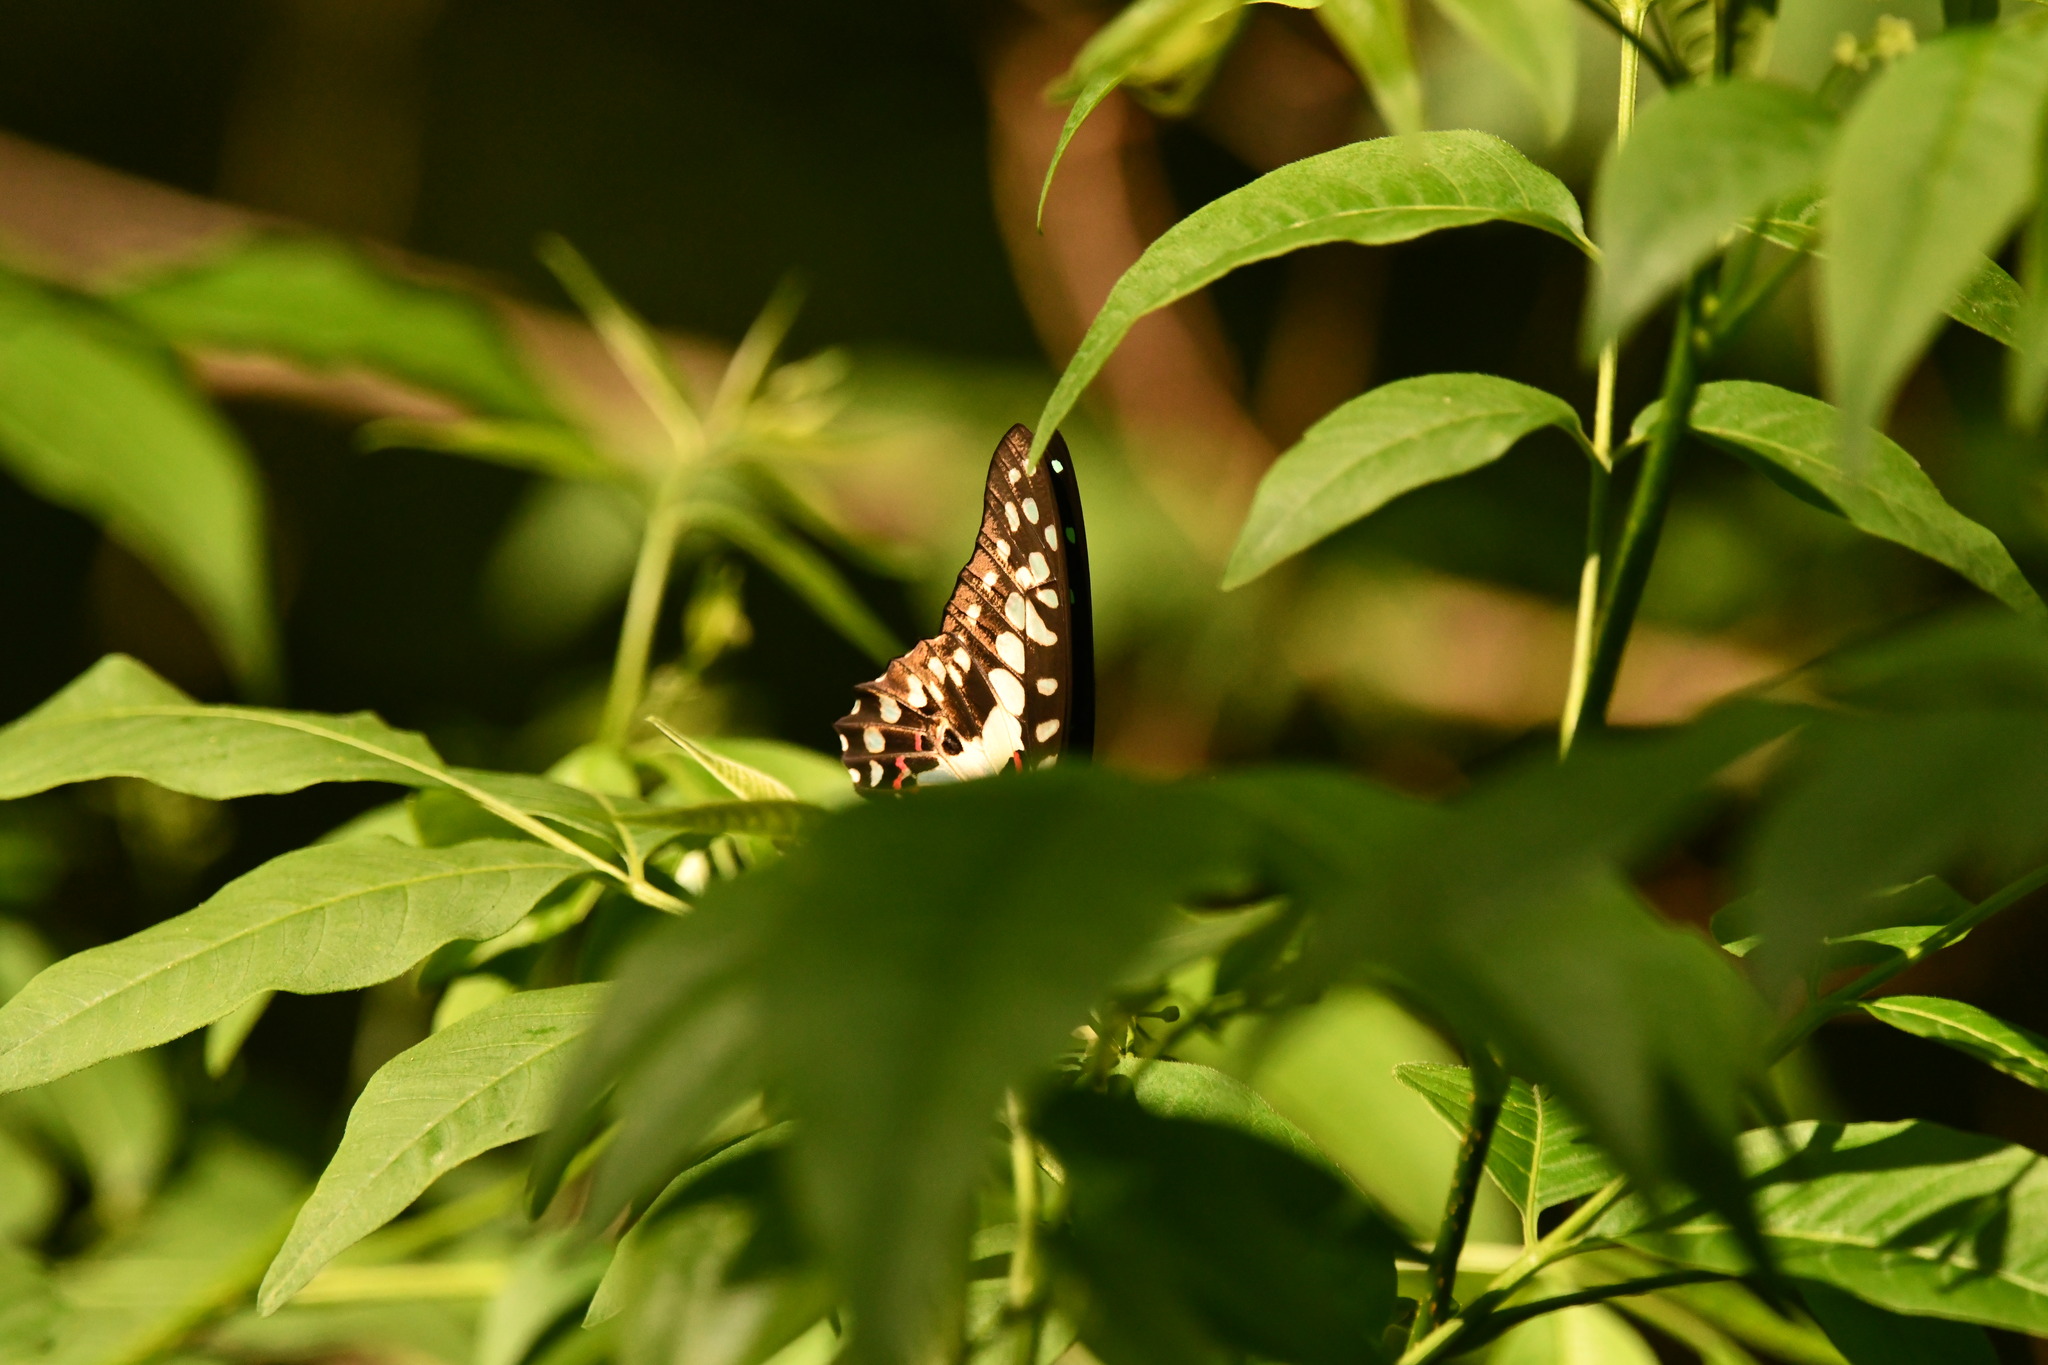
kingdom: Animalia
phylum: Arthropoda
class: Insecta
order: Lepidoptera
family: Papilionidae
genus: Graphium
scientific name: Graphium doson
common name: Common jay
